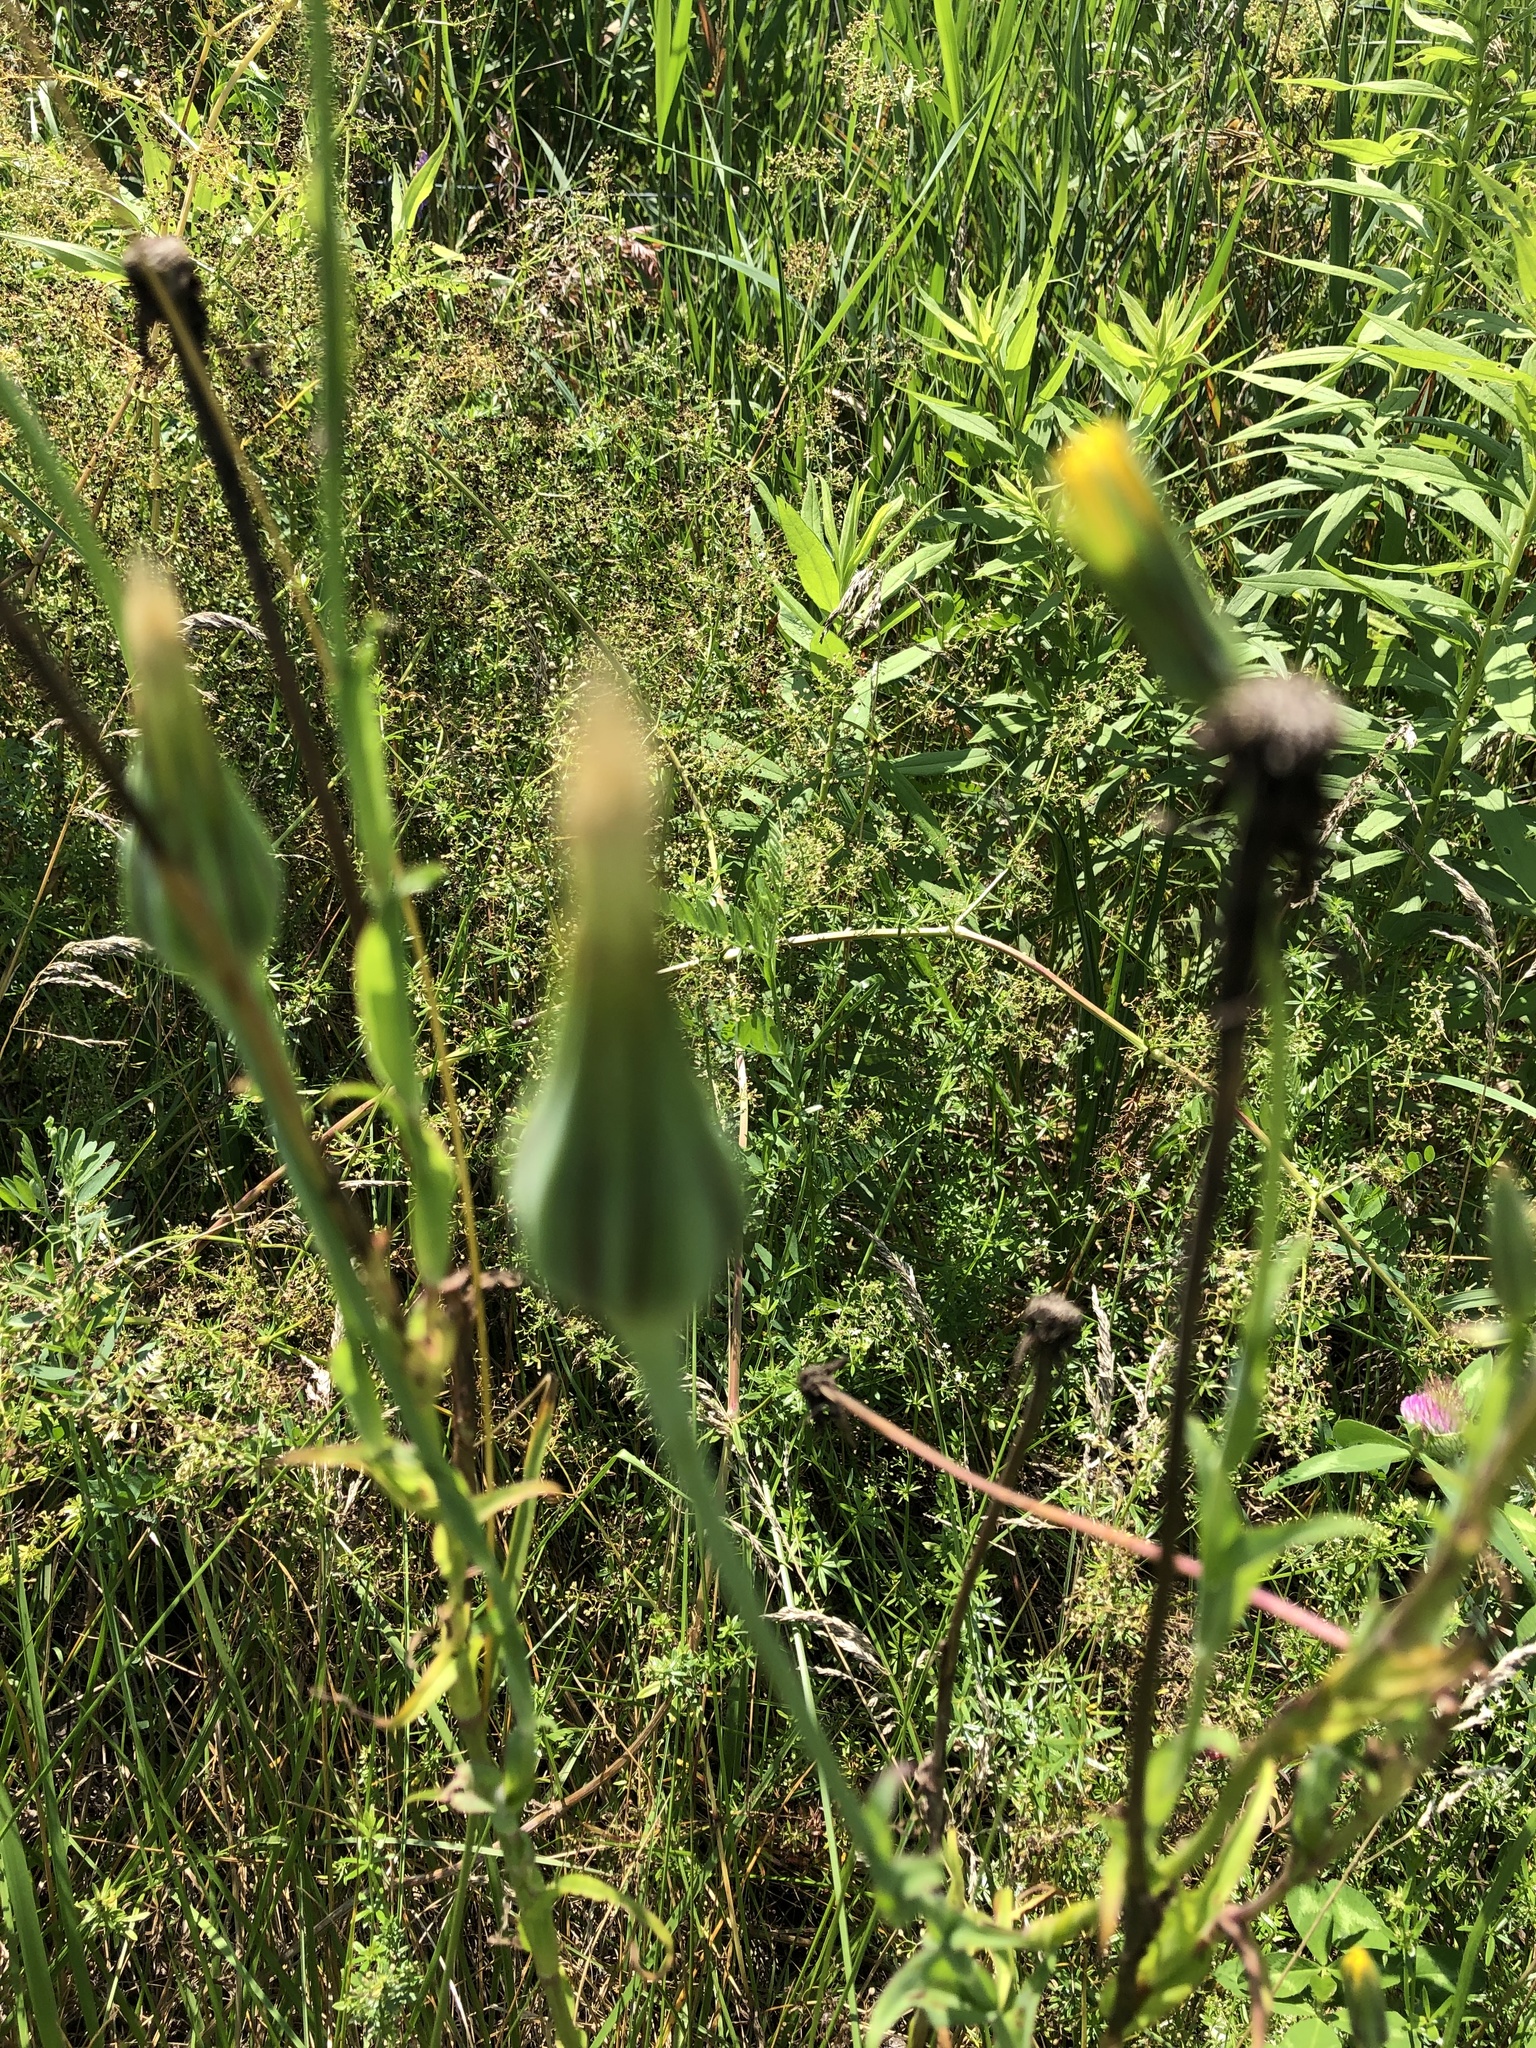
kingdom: Plantae
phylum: Tracheophyta
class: Magnoliopsida
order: Asterales
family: Asteraceae
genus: Tragopogon
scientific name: Tragopogon pratensis
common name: Goat's-beard
